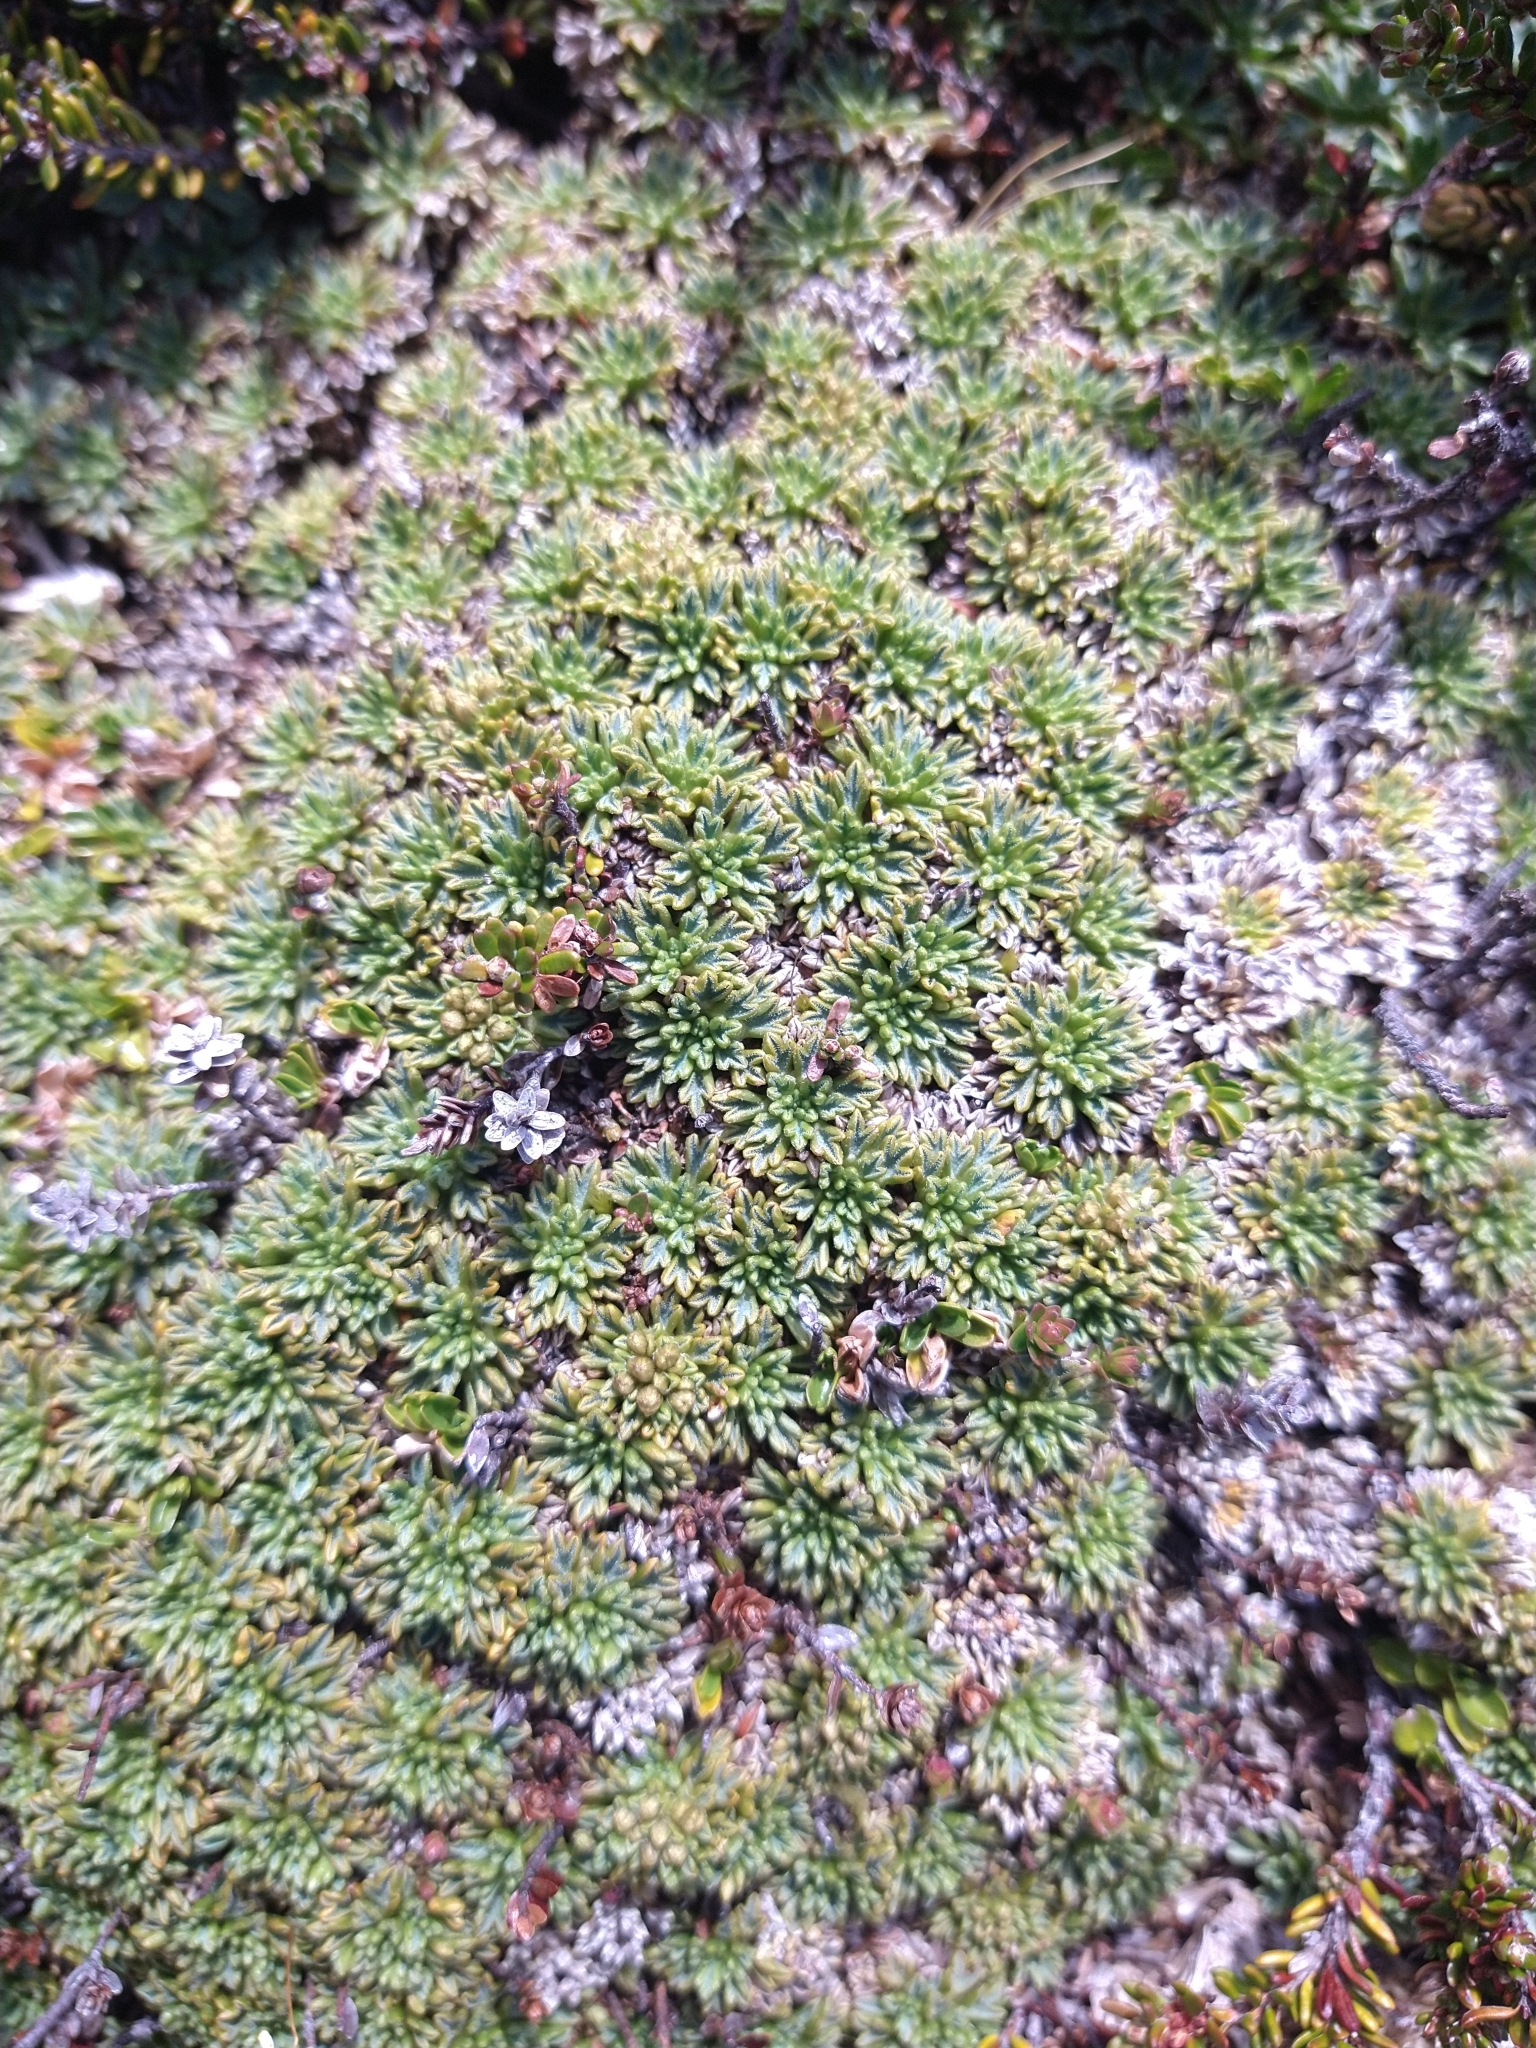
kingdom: Plantae
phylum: Tracheophyta
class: Magnoliopsida
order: Apiales
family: Apiaceae
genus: Bolax
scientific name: Bolax gummifera
